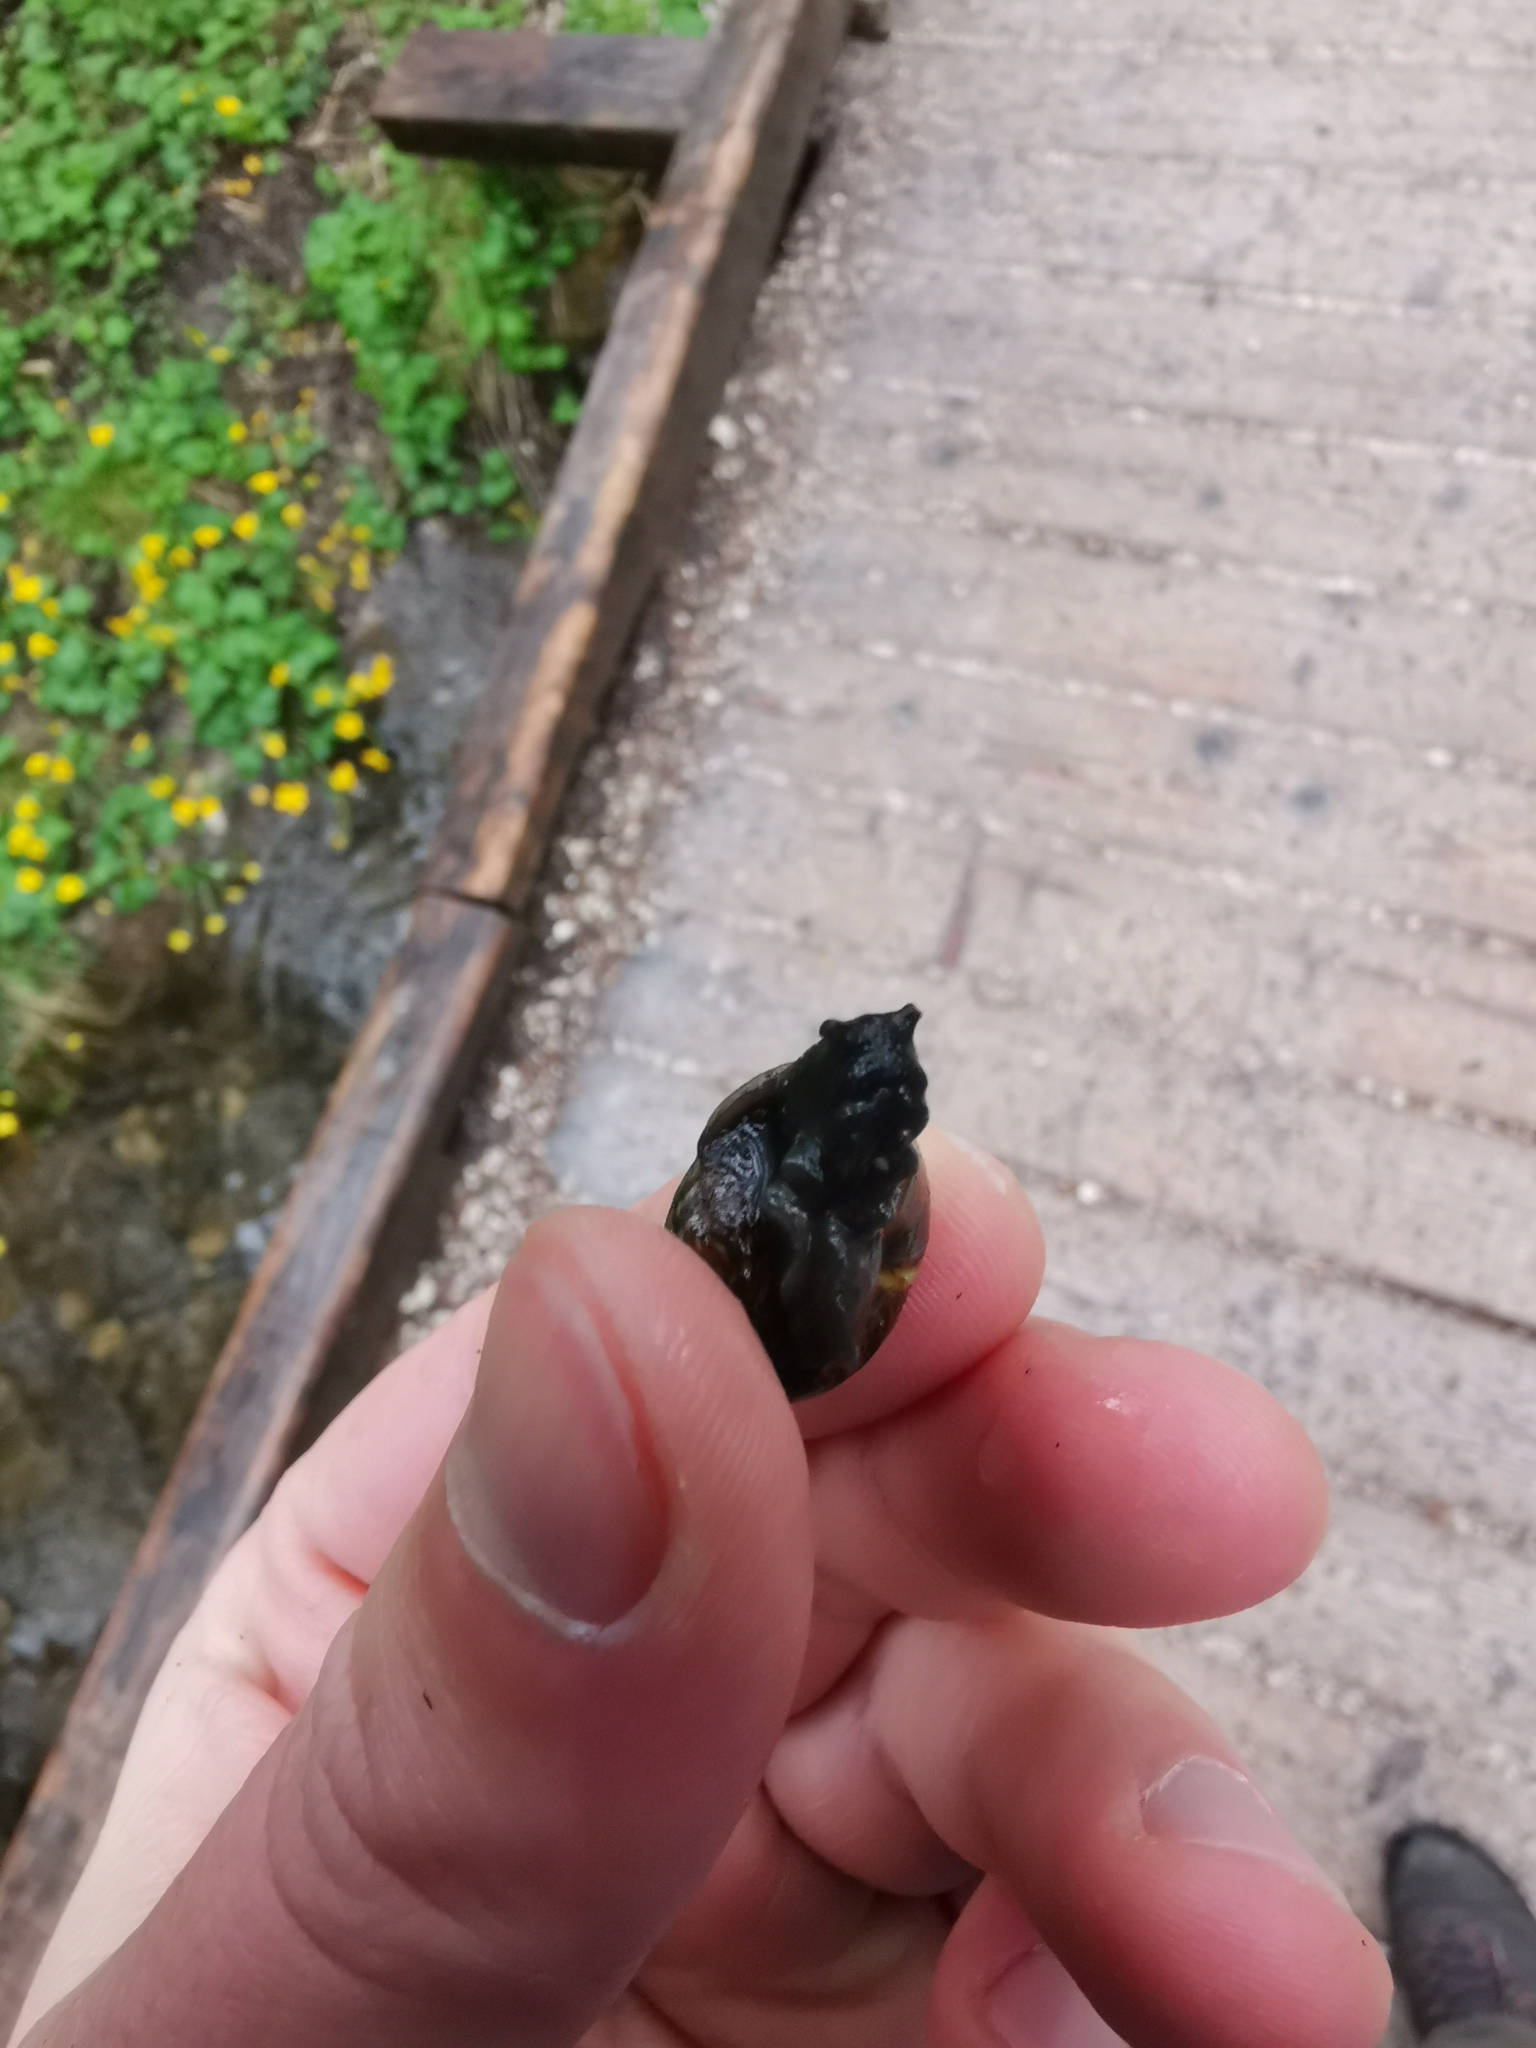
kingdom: Animalia
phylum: Mollusca
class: Gastropoda
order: Stylommatophora
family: Helicidae
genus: Arianta
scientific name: Arianta arbustorum
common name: Copse snail
